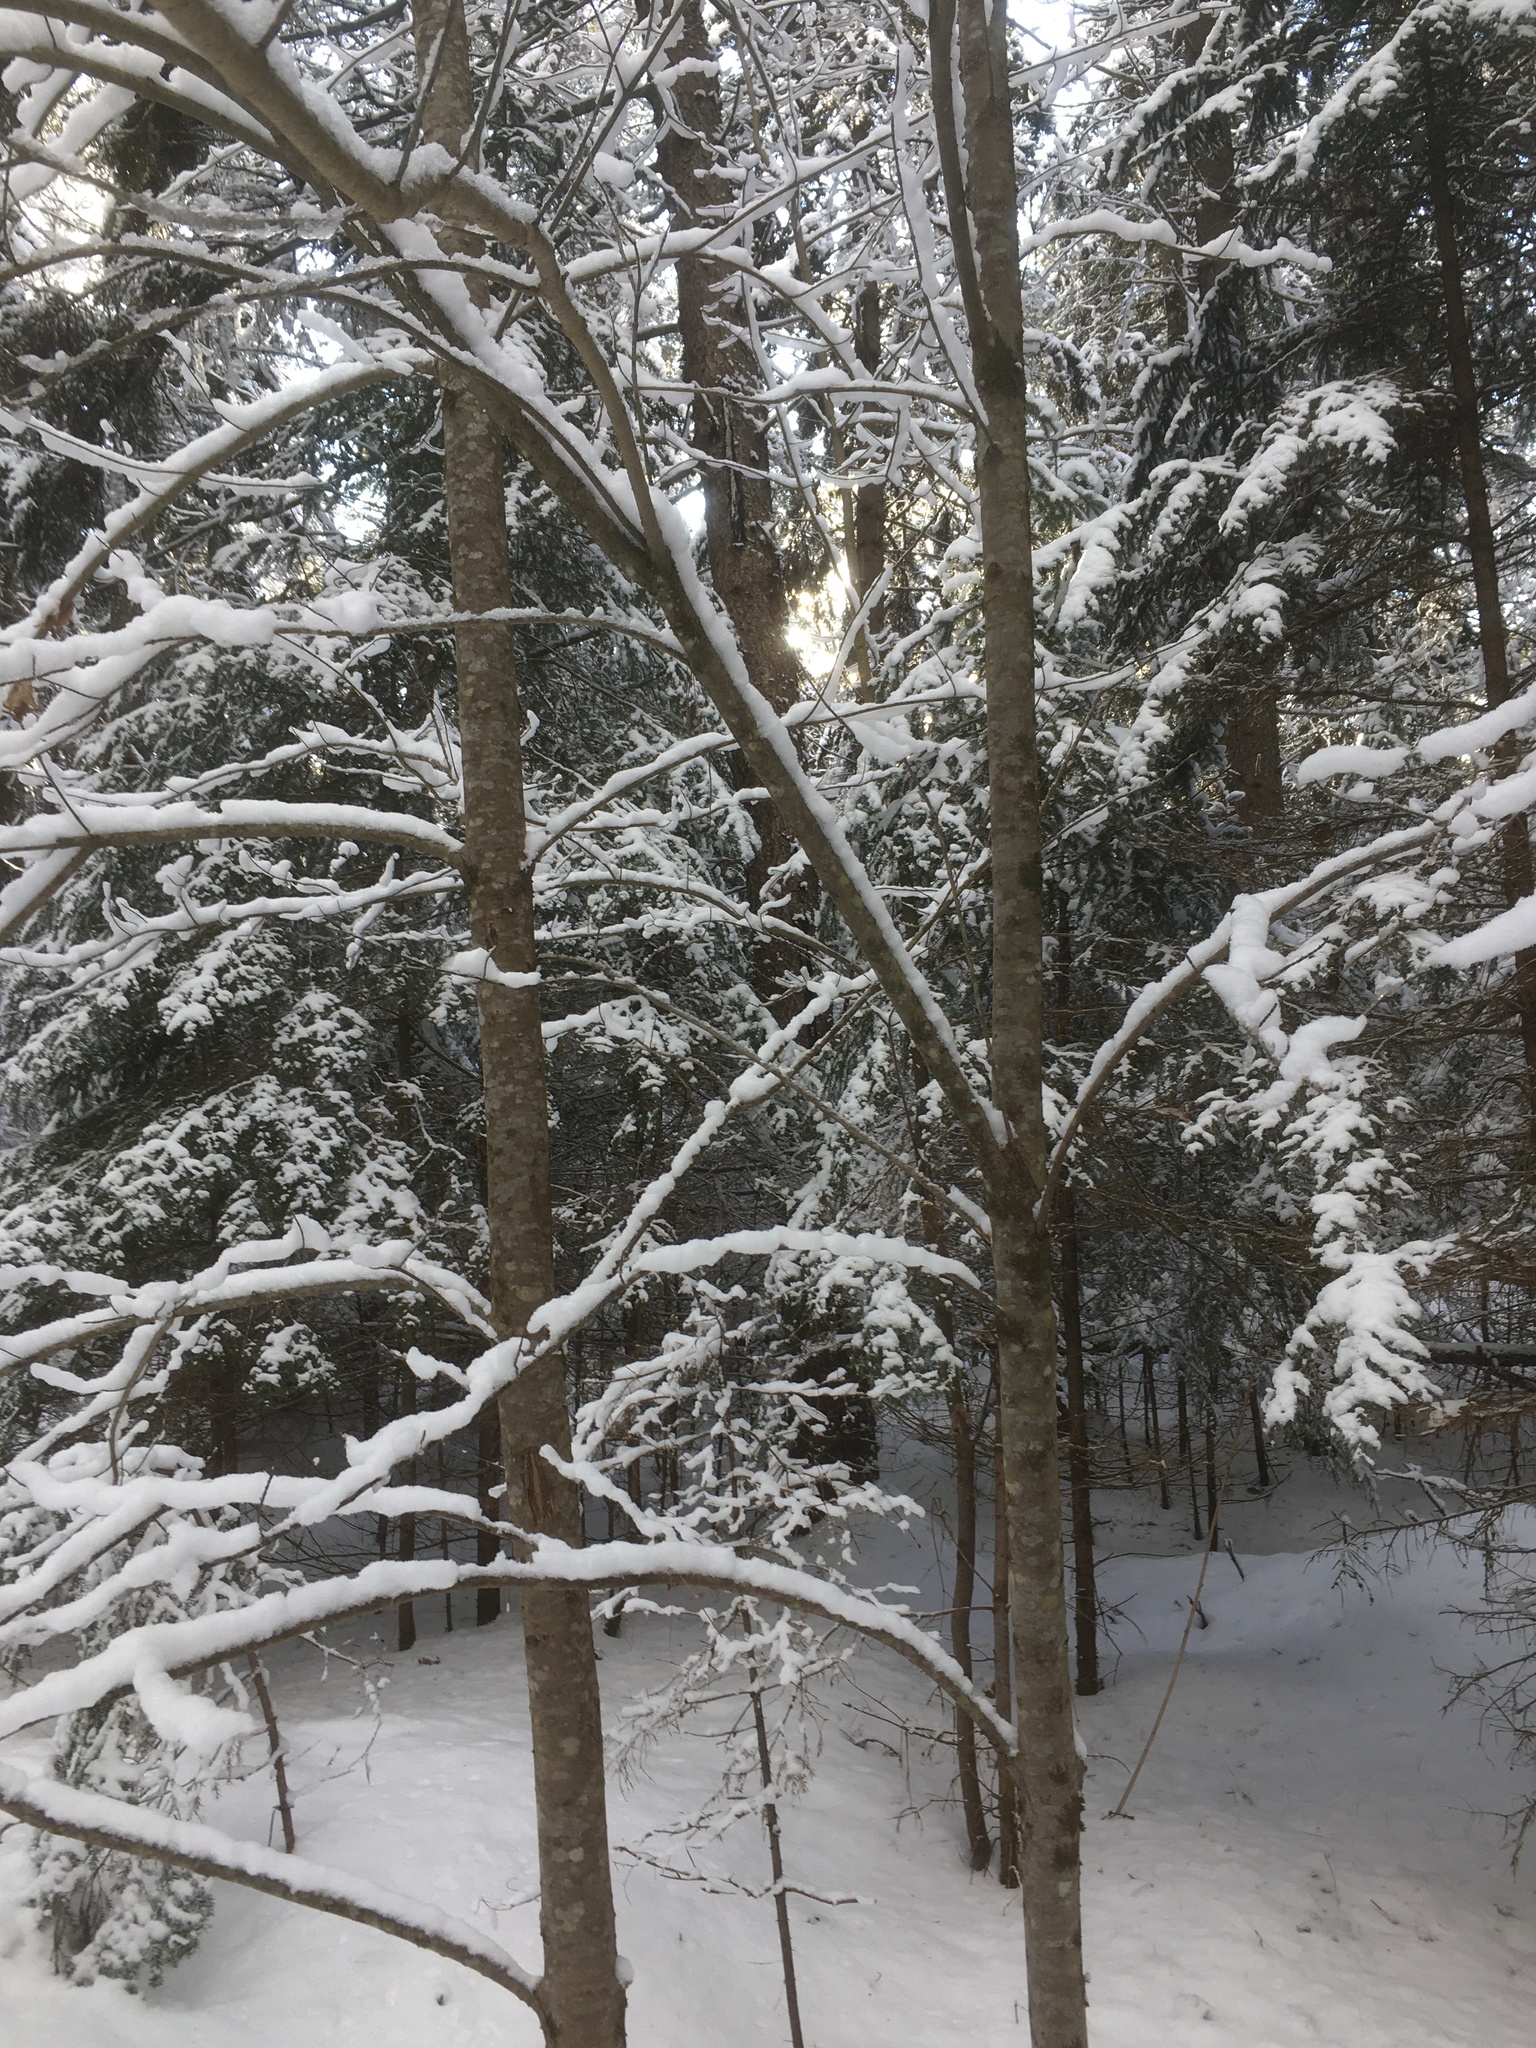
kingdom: Plantae
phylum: Tracheophyta
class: Magnoliopsida
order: Sapindales
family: Sapindaceae
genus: Acer
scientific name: Acer rubrum
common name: Red maple
